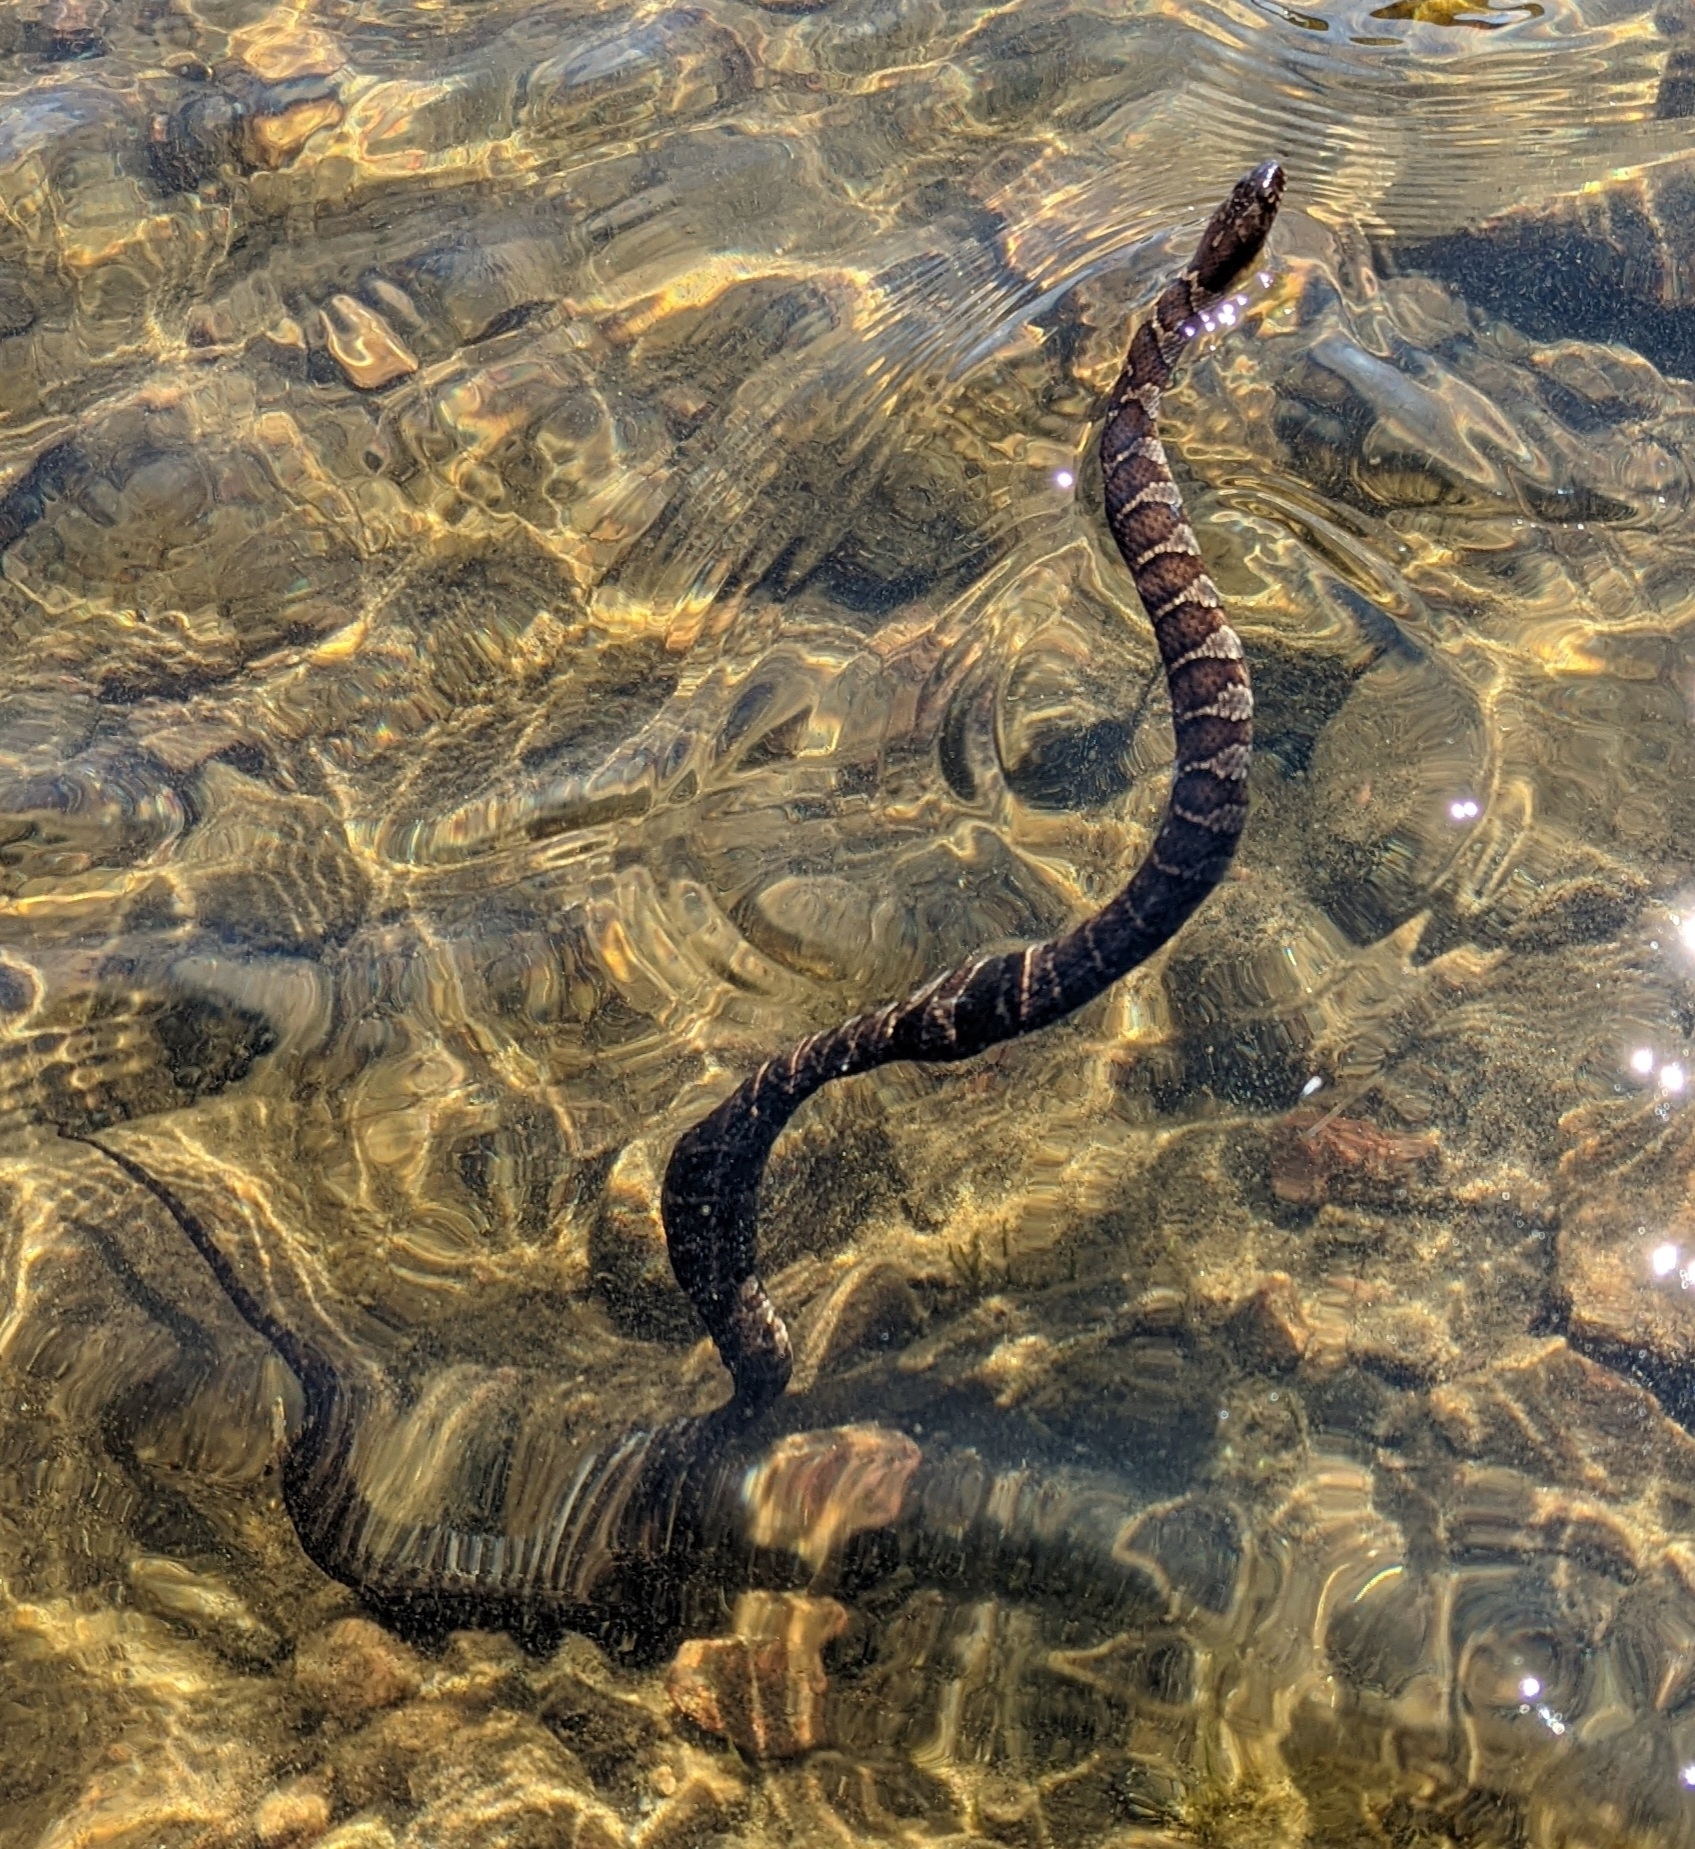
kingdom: Animalia
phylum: Chordata
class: Squamata
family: Colubridae
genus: Nerodia
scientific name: Nerodia sipedon
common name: Northern water snake
